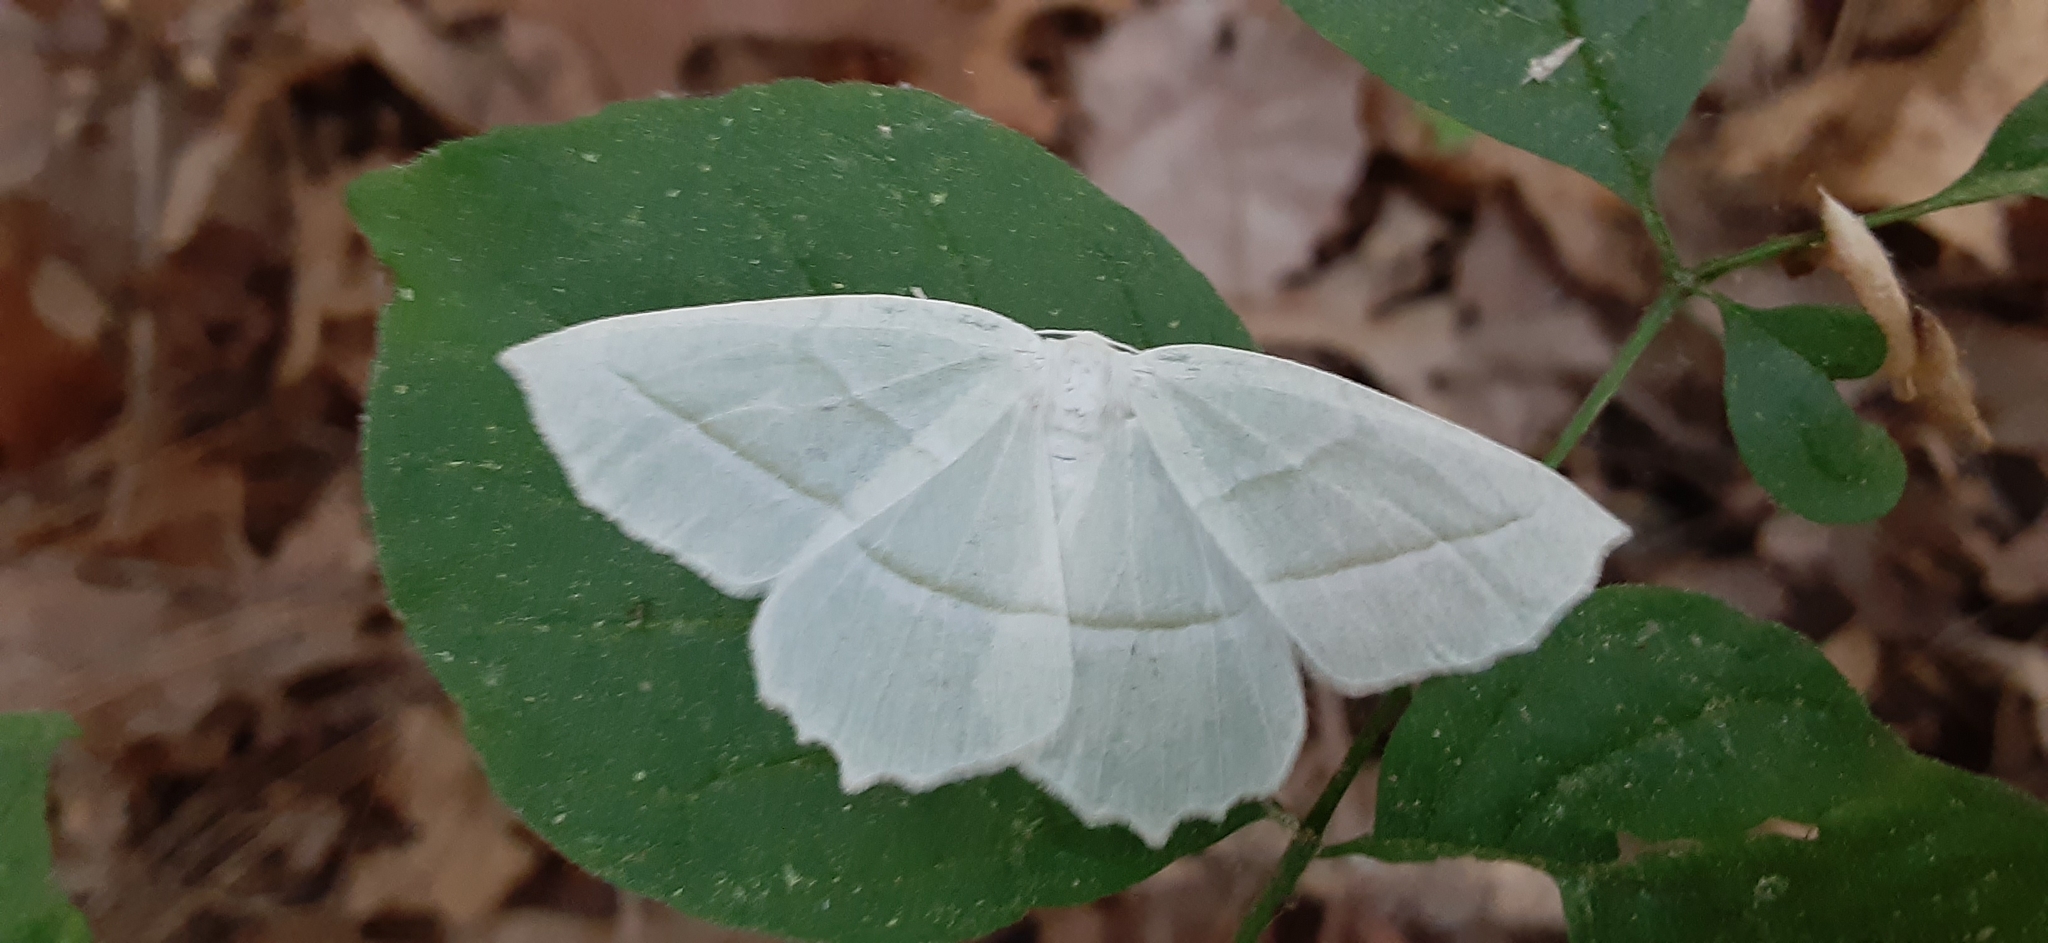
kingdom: Animalia
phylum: Arthropoda
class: Insecta
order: Lepidoptera
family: Geometridae
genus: Campaea
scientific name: Campaea perlata
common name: Fringed looper
